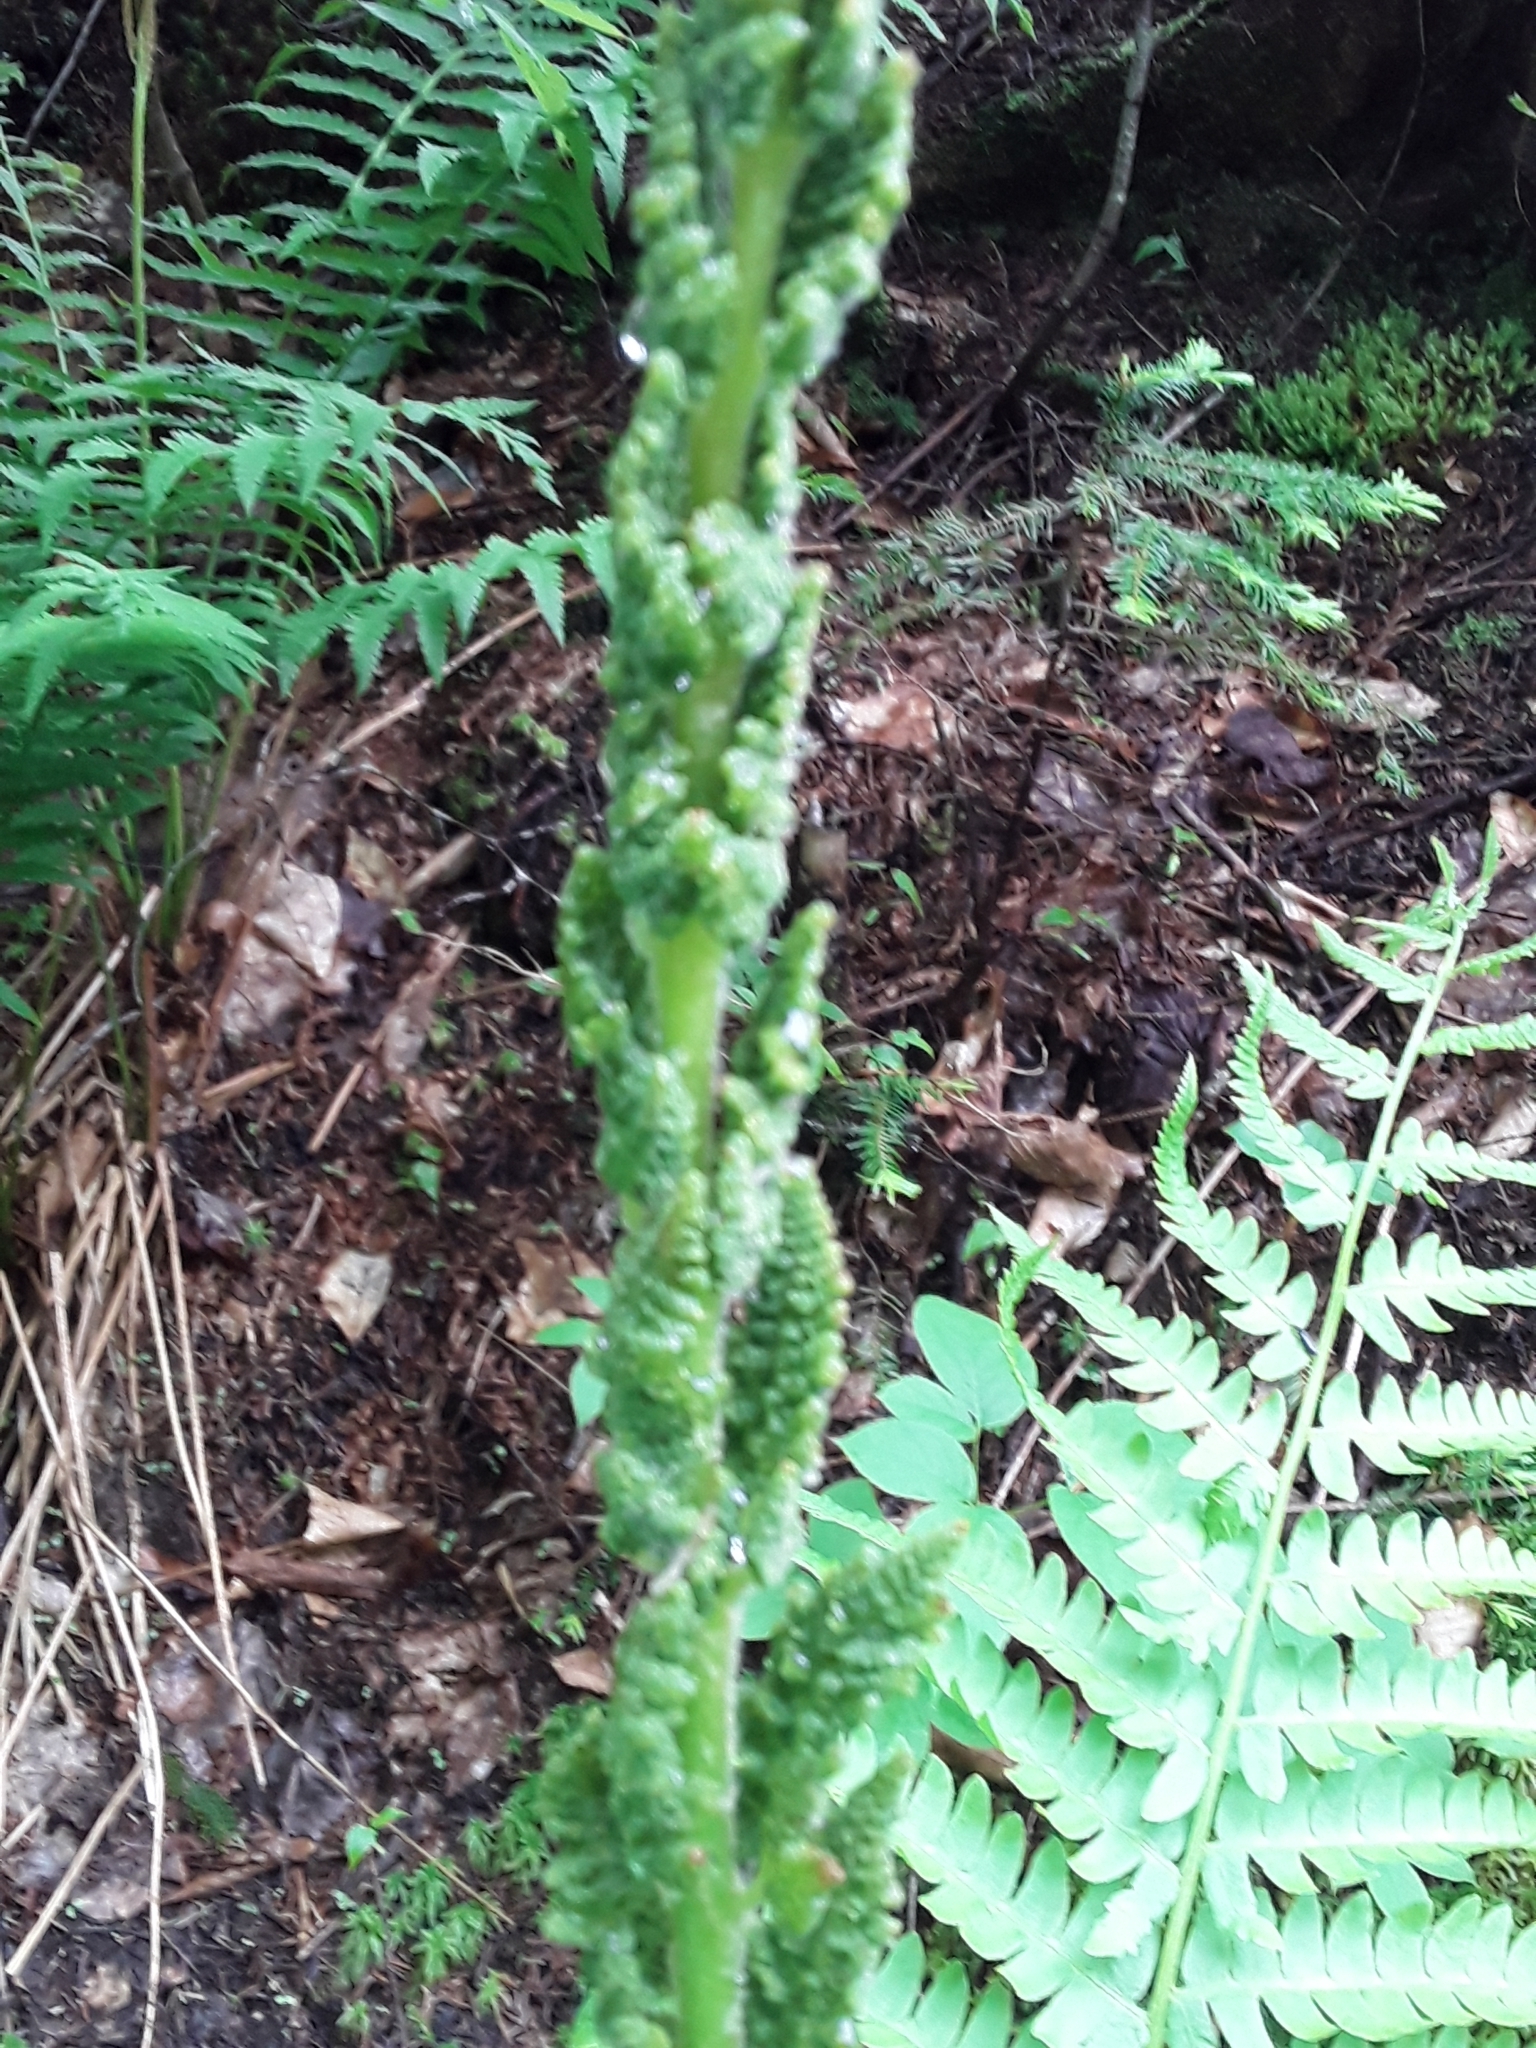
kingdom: Plantae
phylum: Tracheophyta
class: Polypodiopsida
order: Osmundales
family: Osmundaceae
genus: Osmundastrum
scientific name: Osmundastrum cinnamomeum
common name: Cinnamon fern
